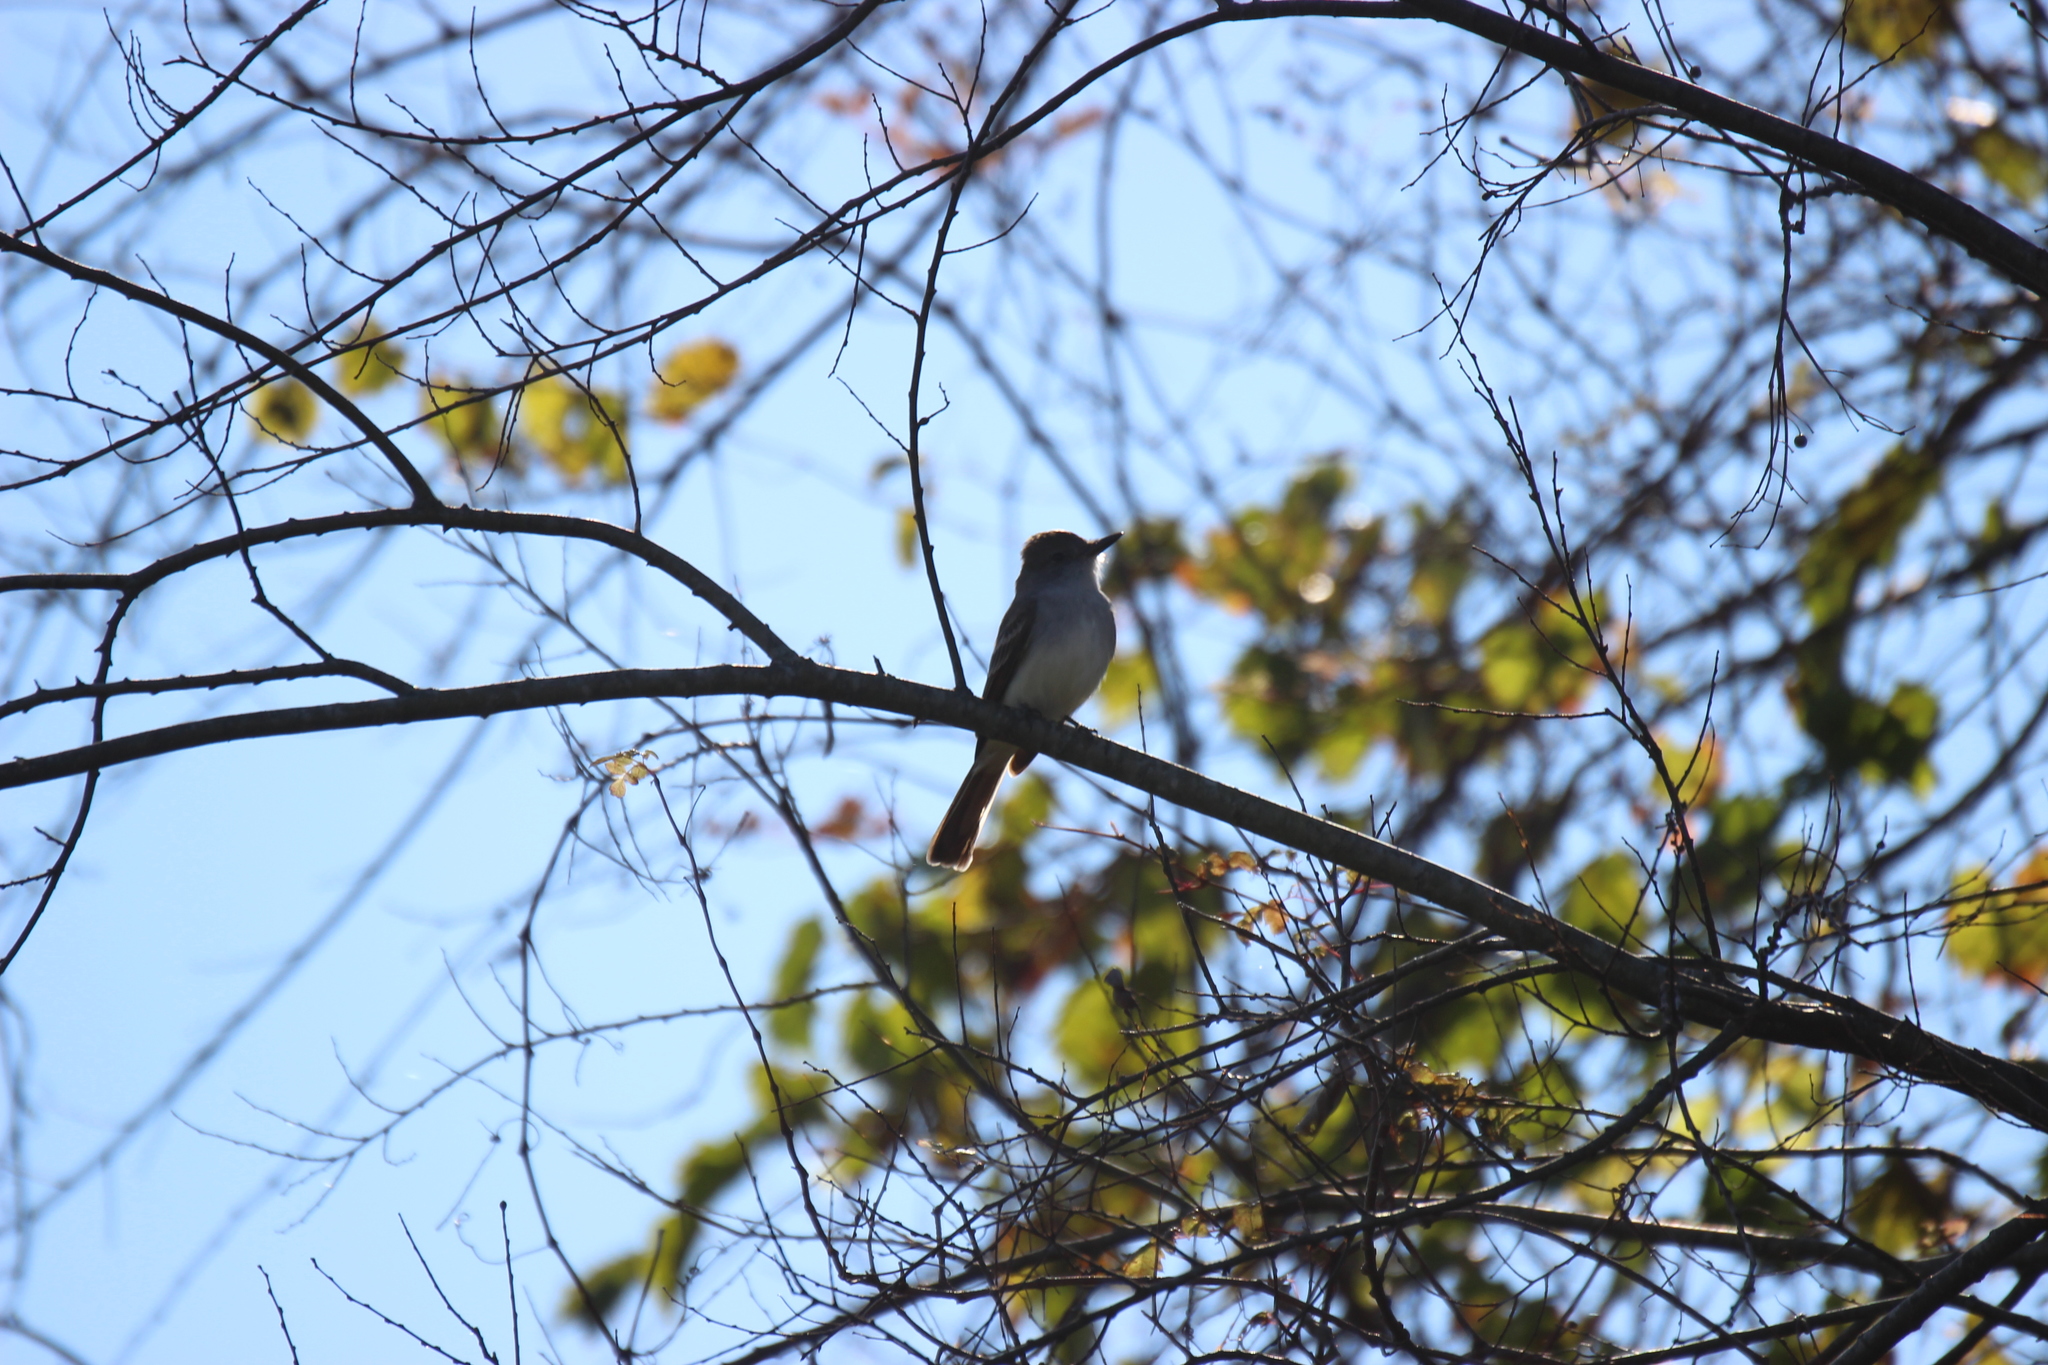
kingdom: Animalia
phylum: Chordata
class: Aves
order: Passeriformes
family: Tyrannidae
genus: Myiarchus
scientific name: Myiarchus cinerascens
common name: Ash-throated flycatcher
